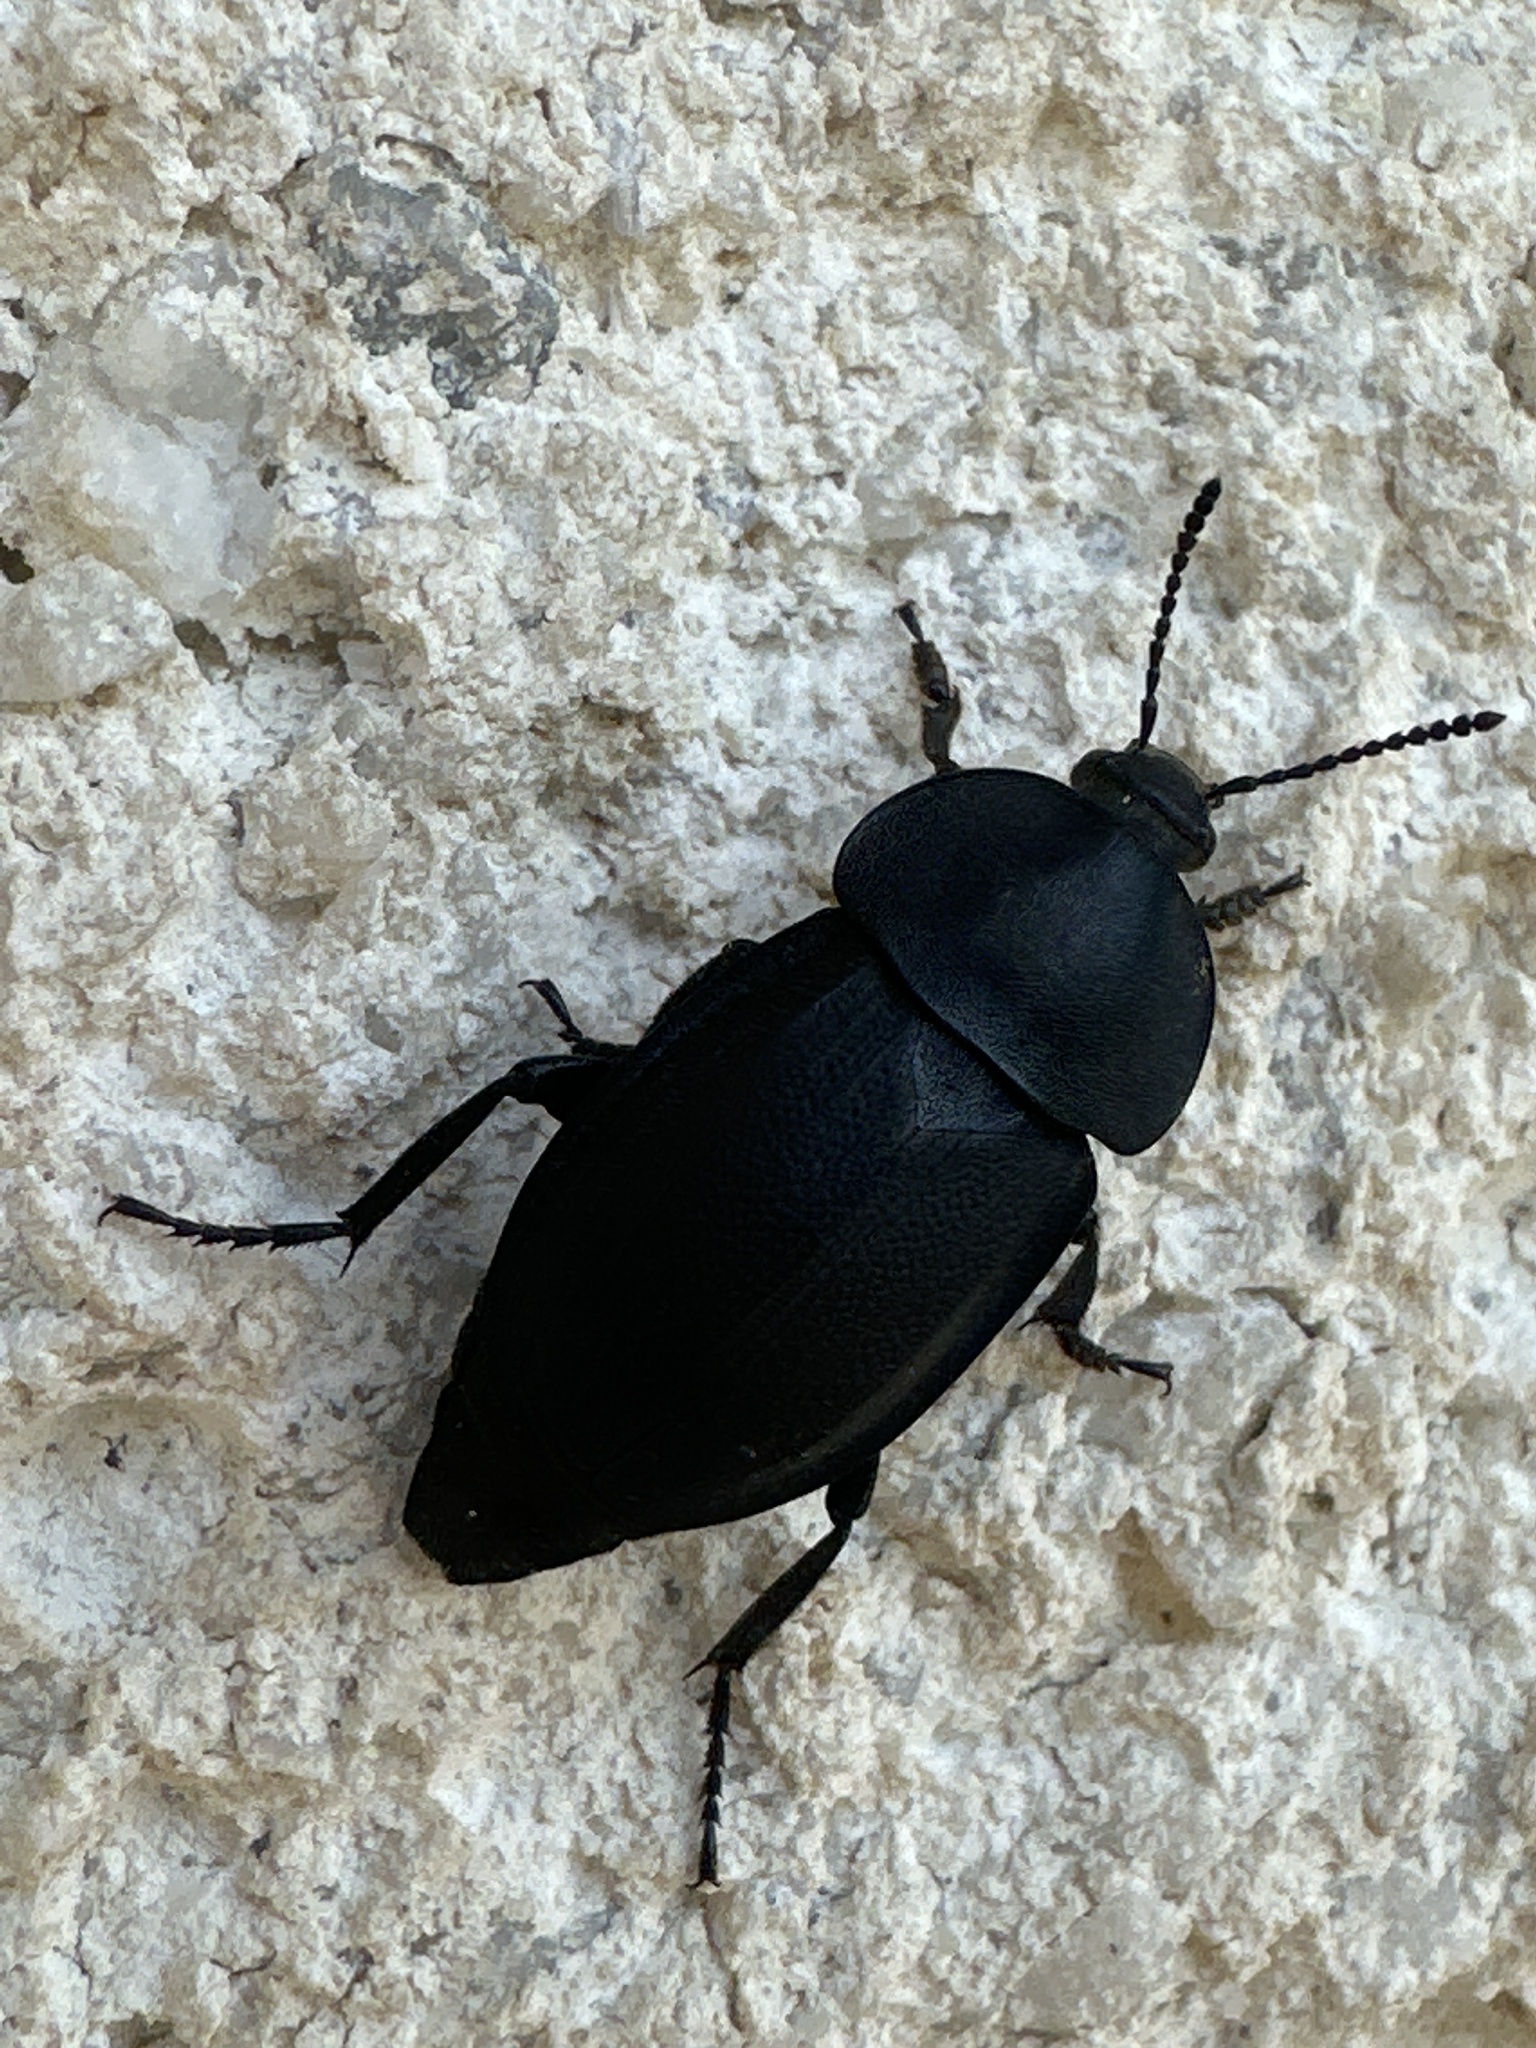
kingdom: Animalia
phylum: Arthropoda
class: Insecta
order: Coleoptera
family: Staphylinidae
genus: Silpha
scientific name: Silpha obscura
